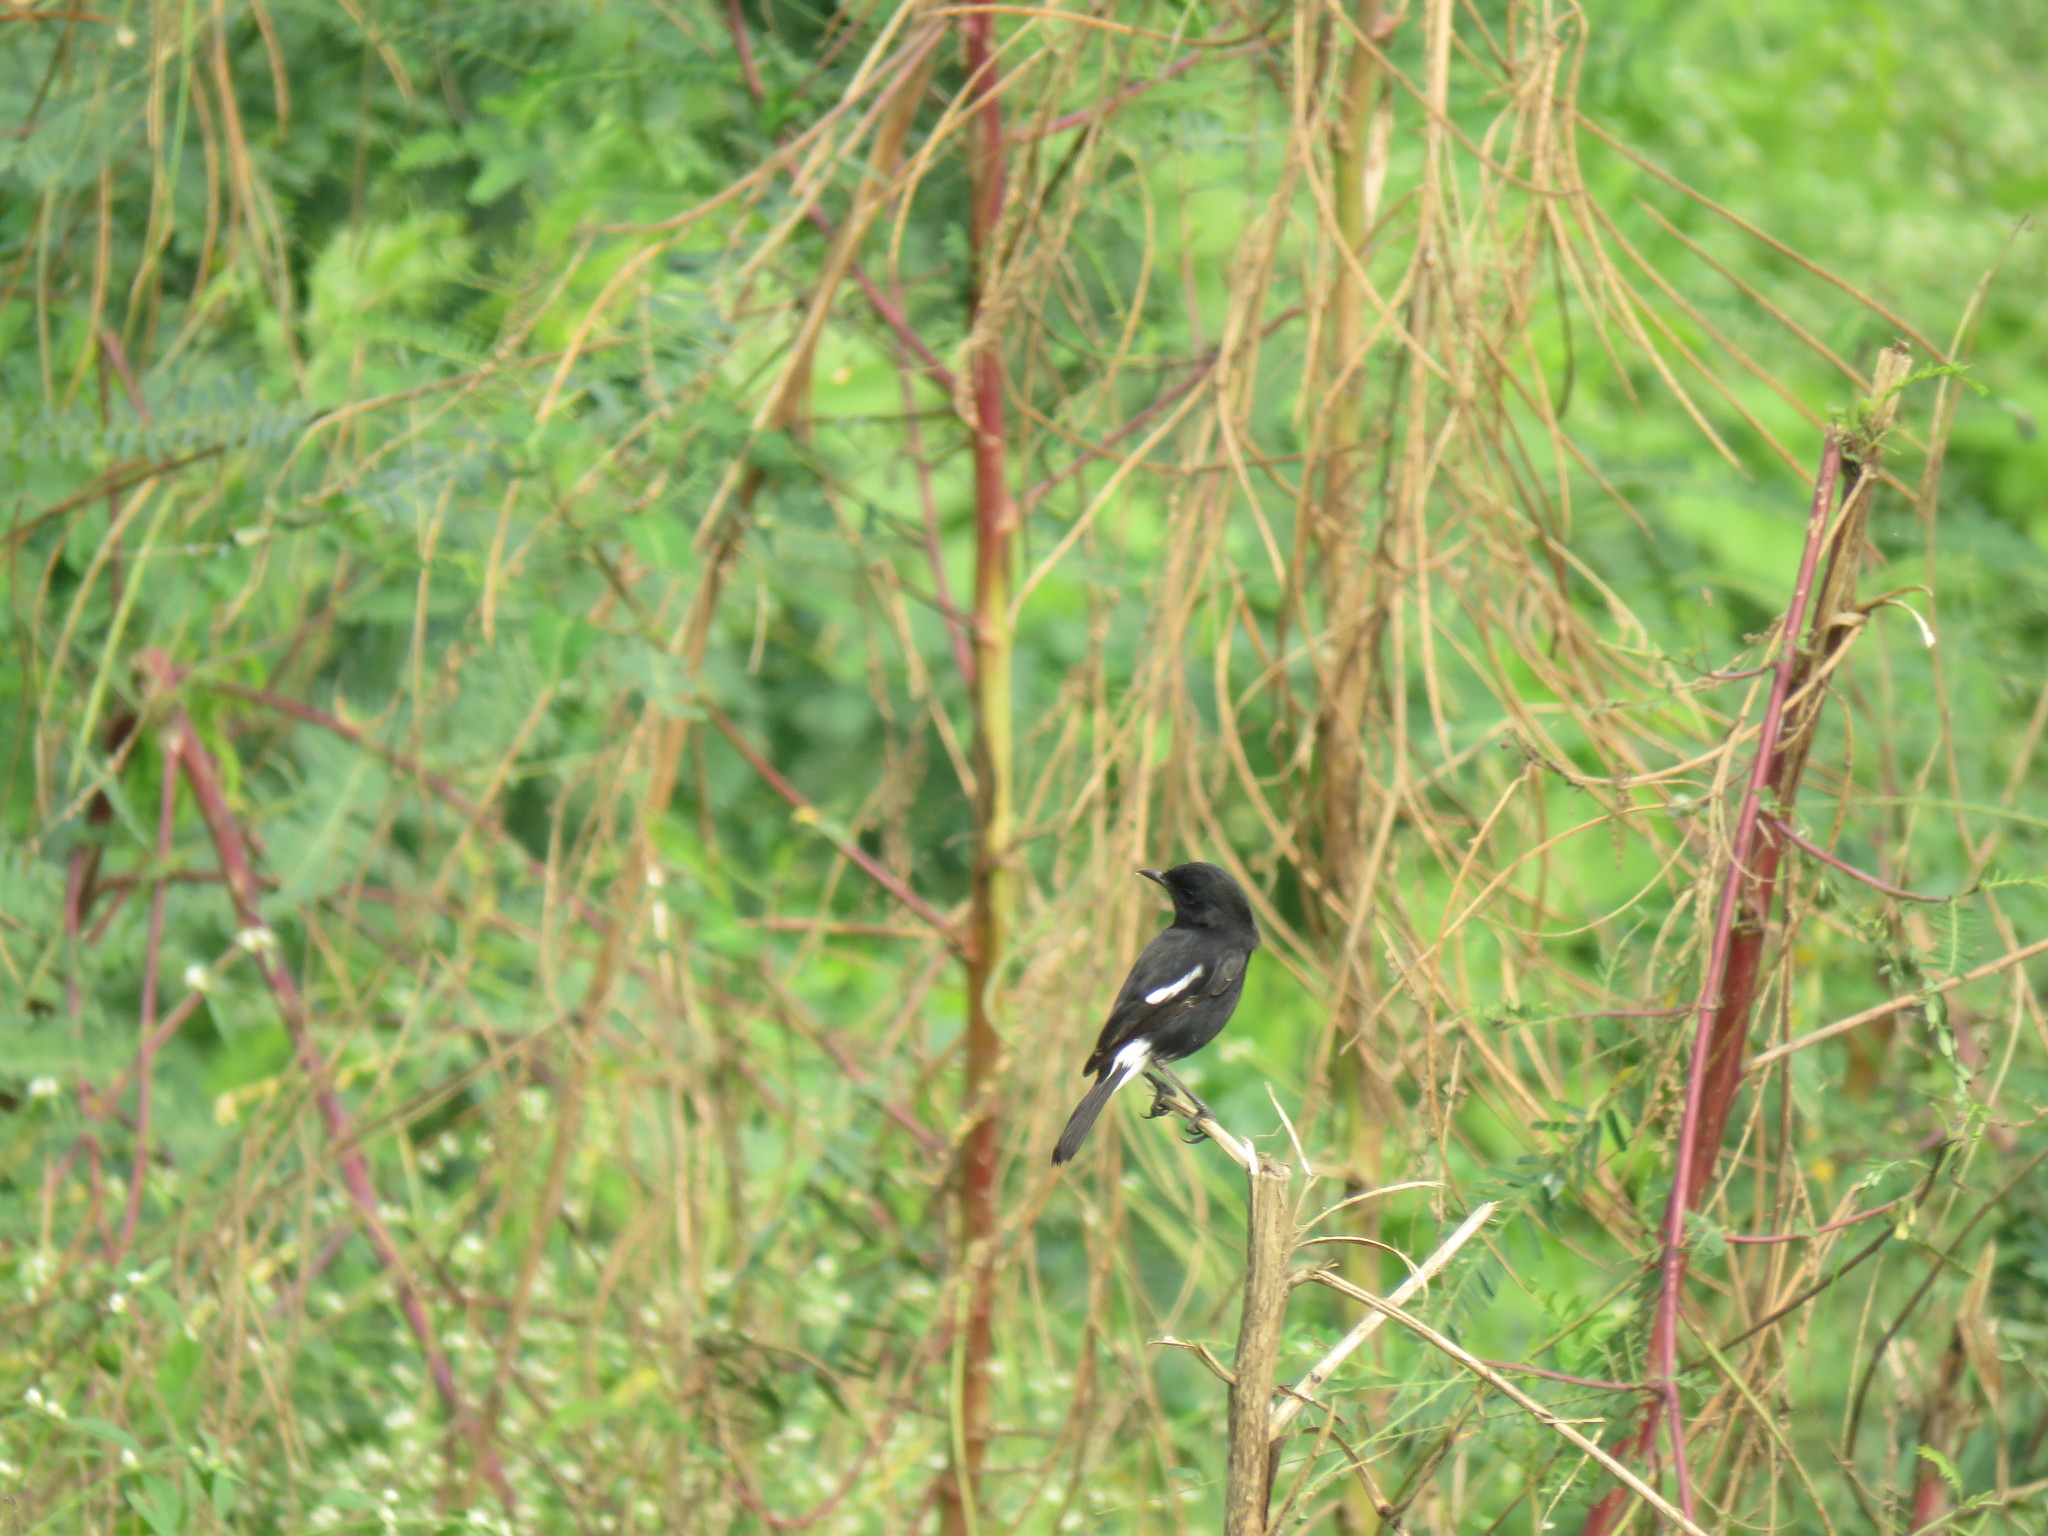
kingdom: Animalia
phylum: Chordata
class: Aves
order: Passeriformes
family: Muscicapidae
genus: Saxicola
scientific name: Saxicola caprata
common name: Pied bush chat
